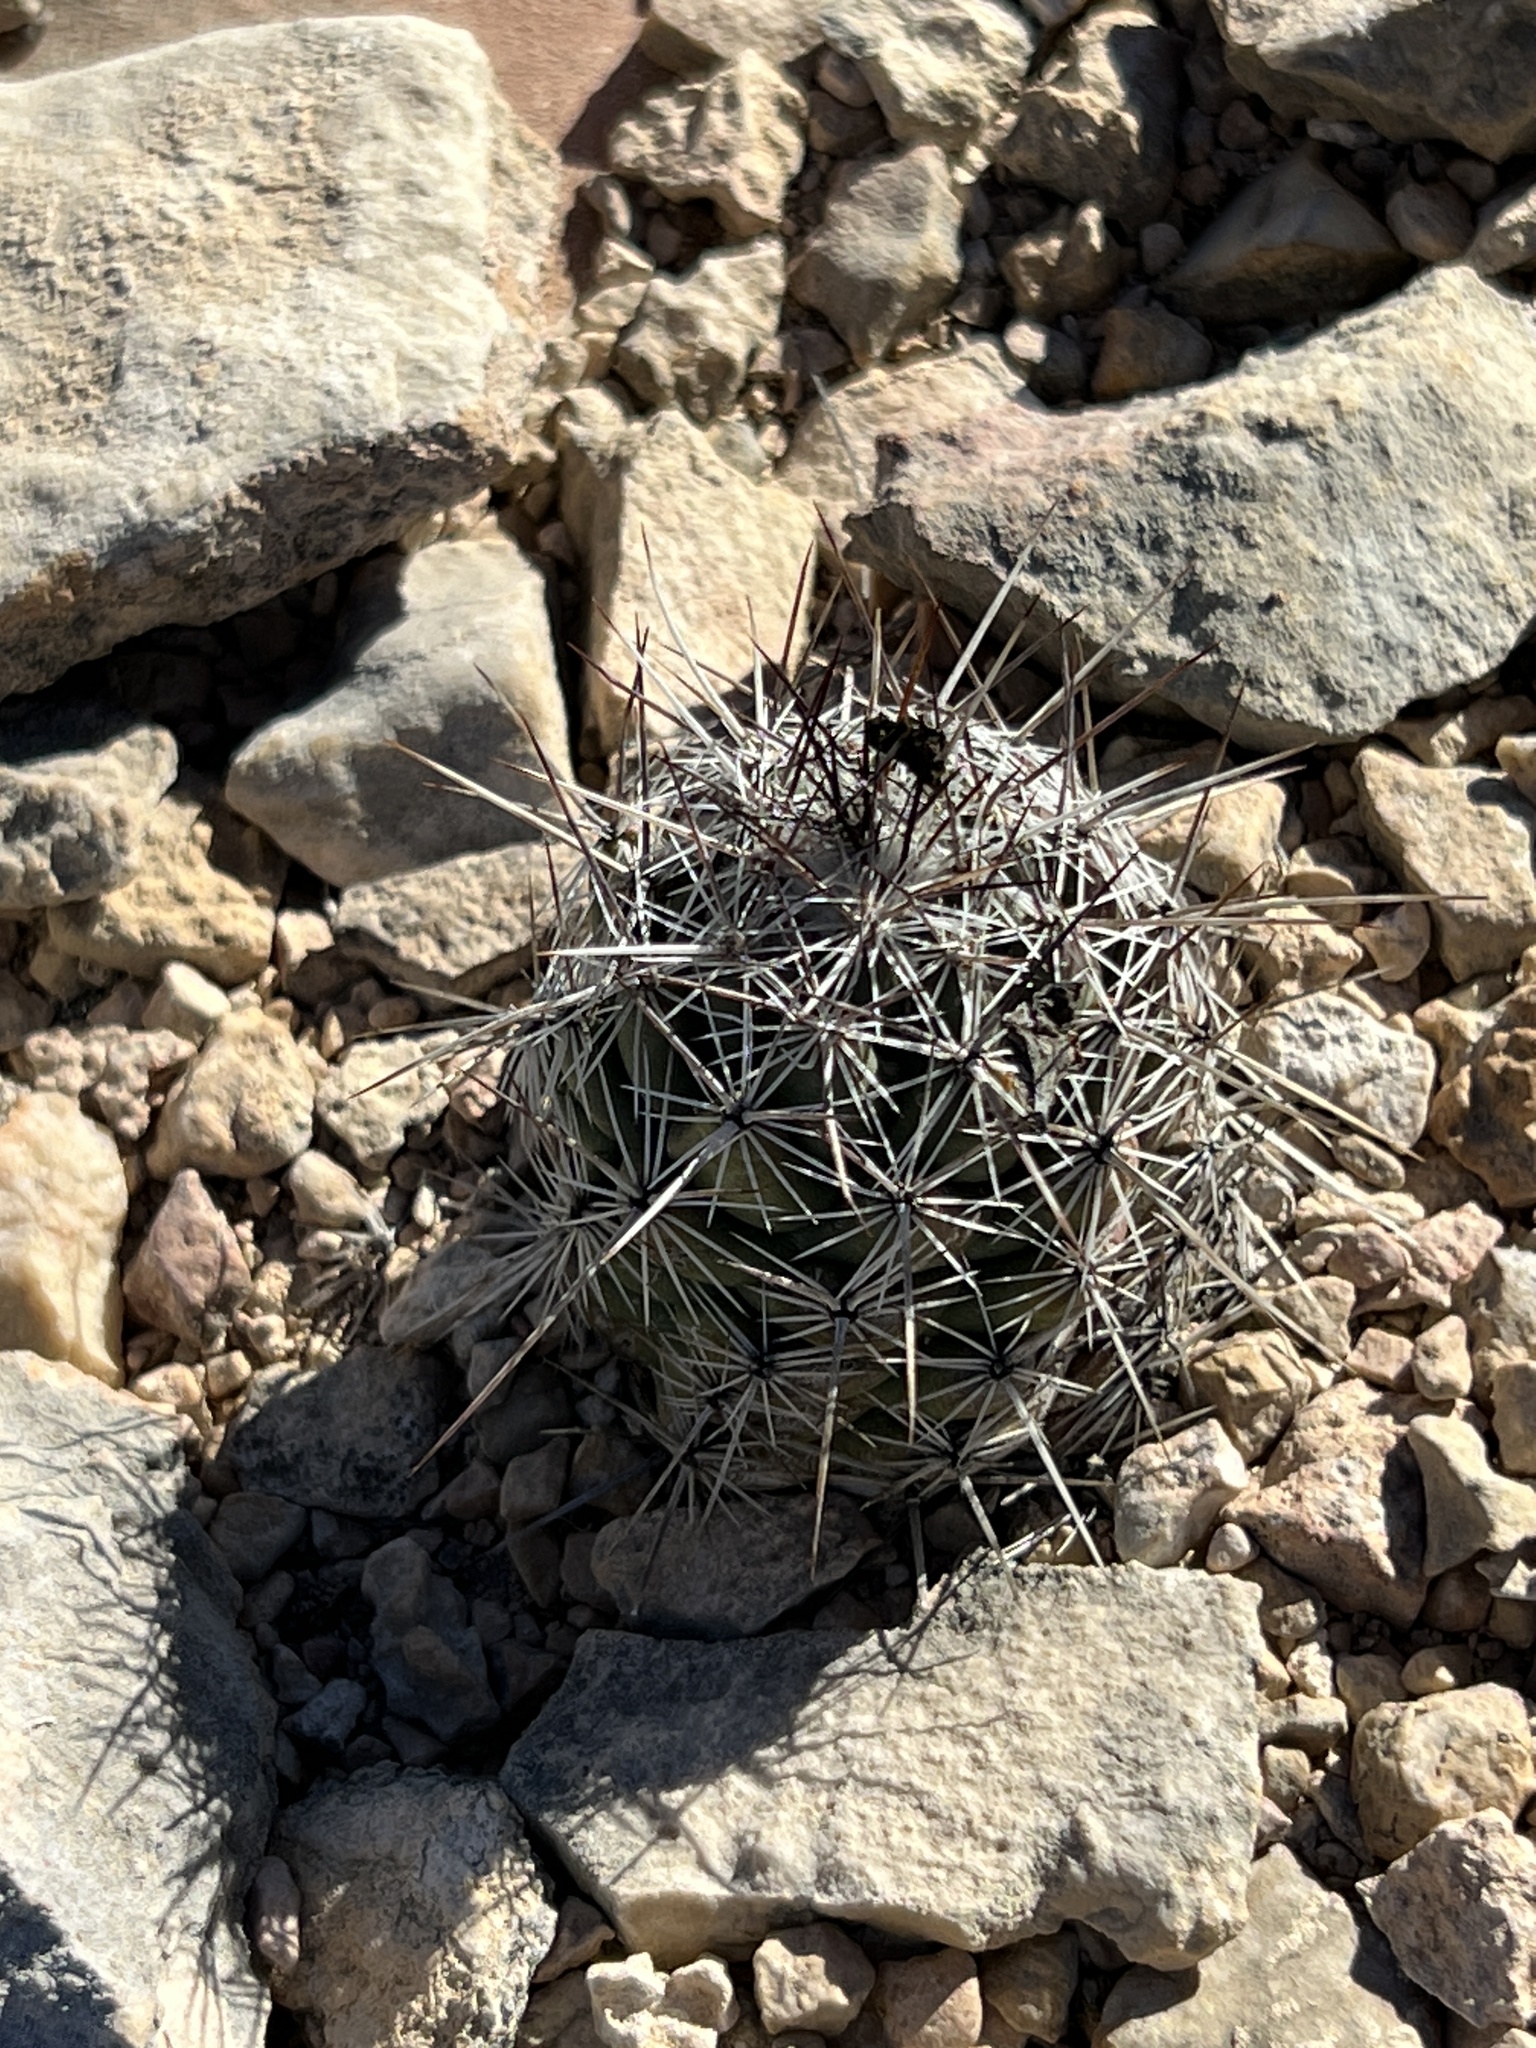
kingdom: Plantae
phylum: Tracheophyta
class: Magnoliopsida
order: Caryophyllales
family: Cactaceae
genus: Cochemiea
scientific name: Cochemiea conoidea
